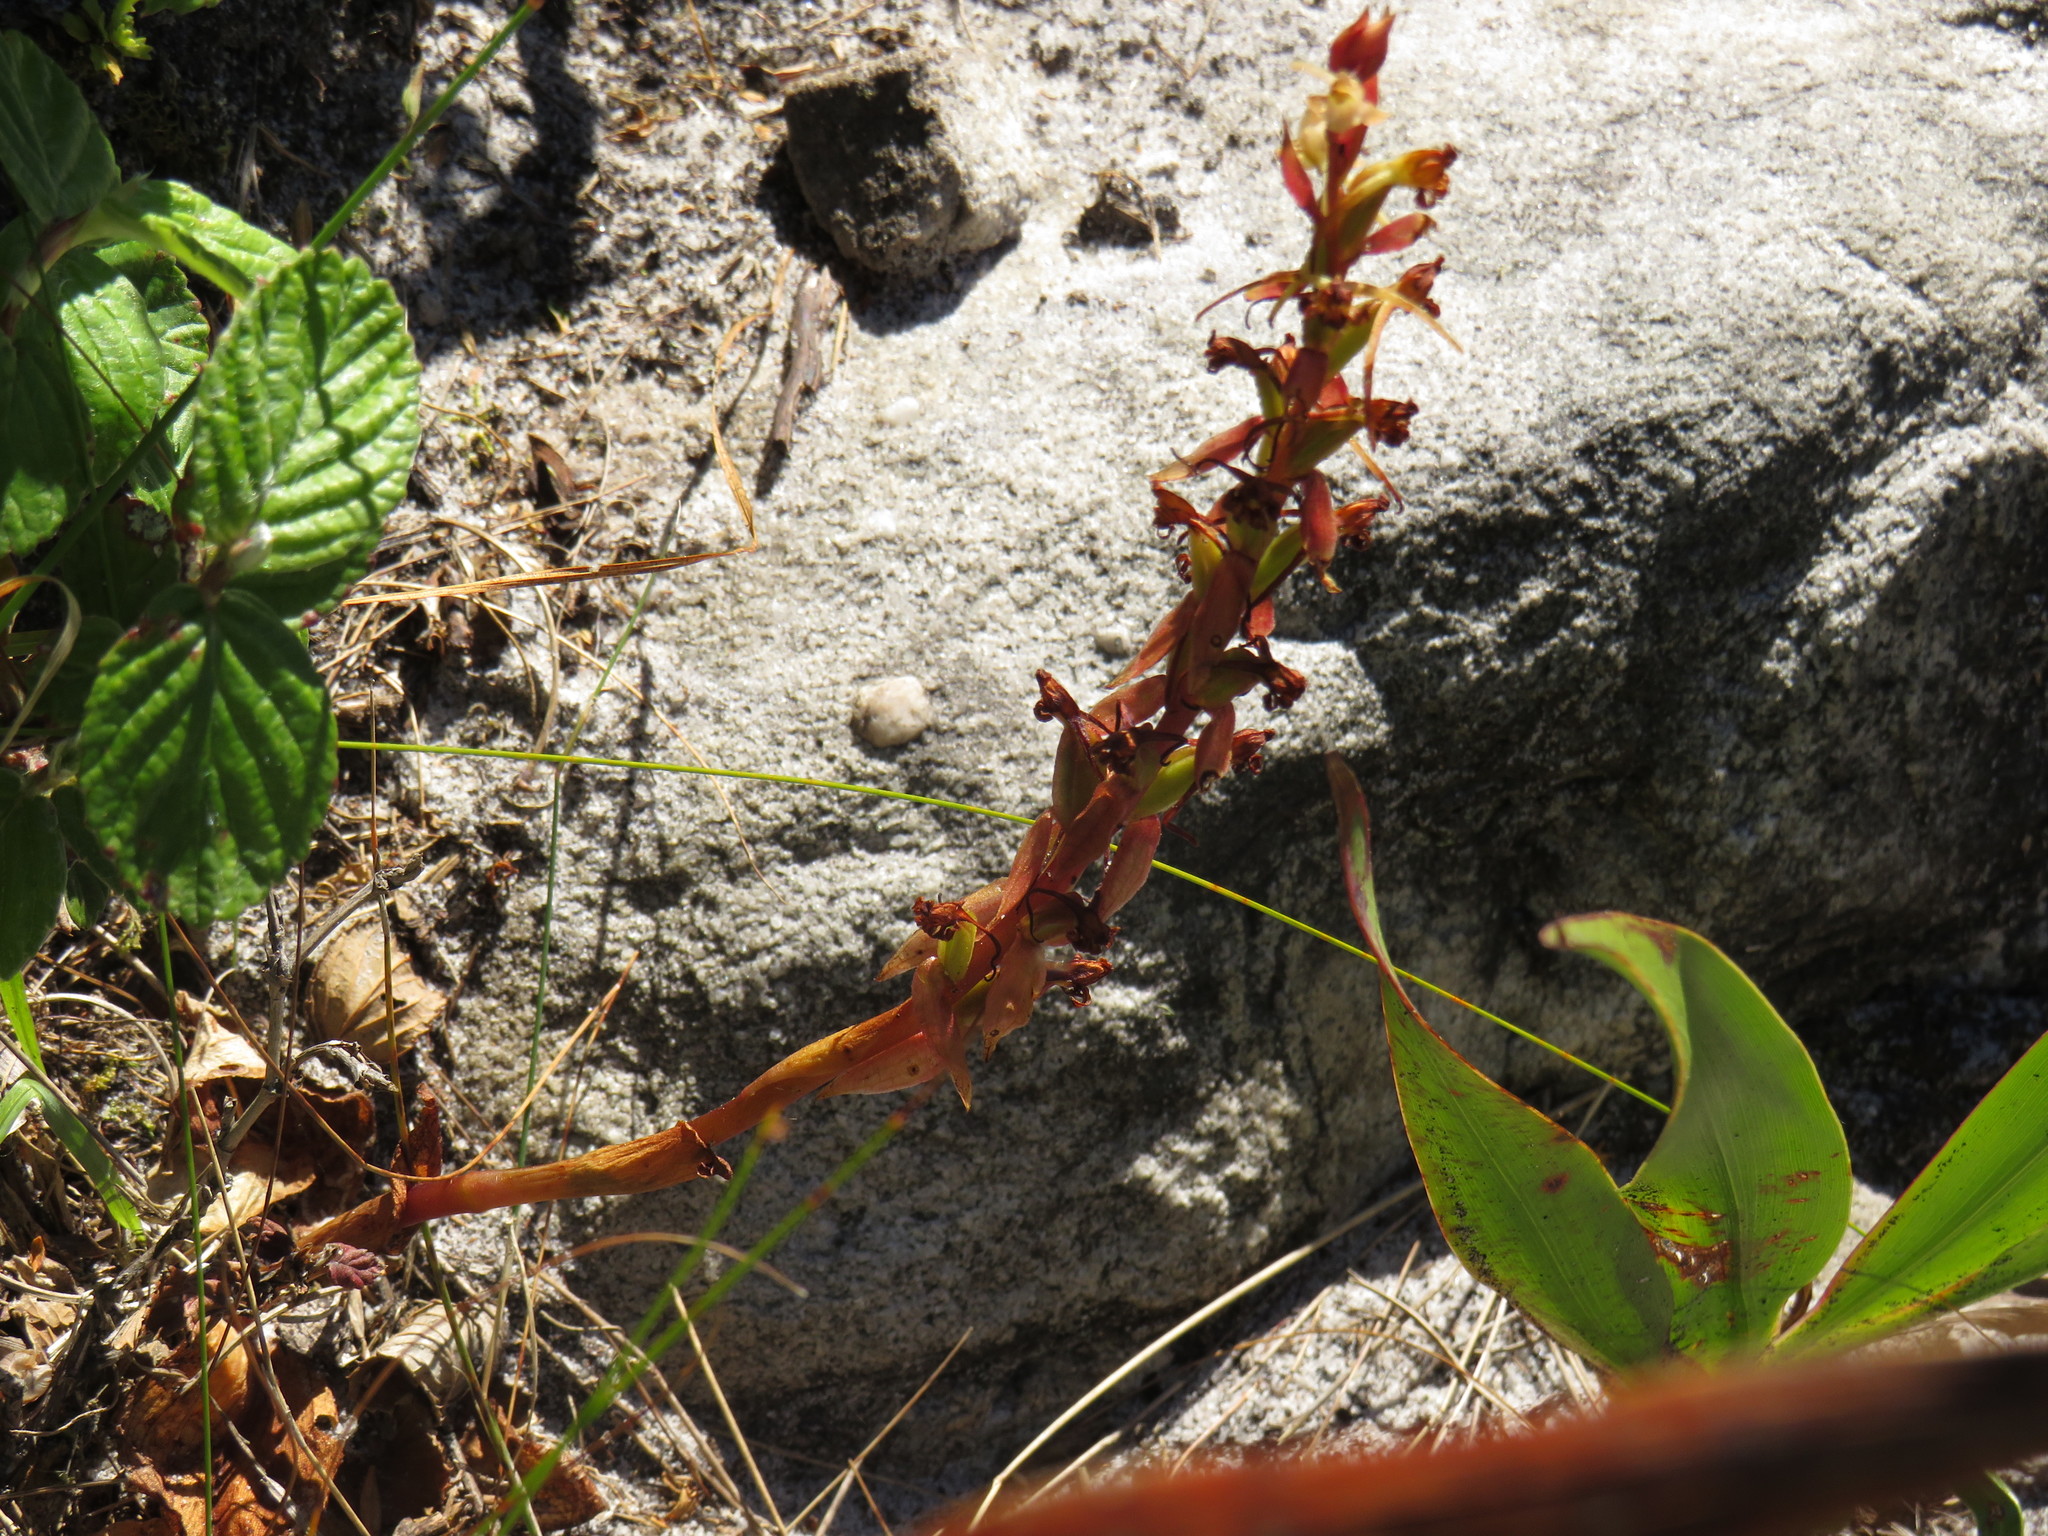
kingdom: Plantae
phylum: Tracheophyta
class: Liliopsida
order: Asparagales
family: Orchidaceae
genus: Satyrium
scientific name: Satyrium humile
